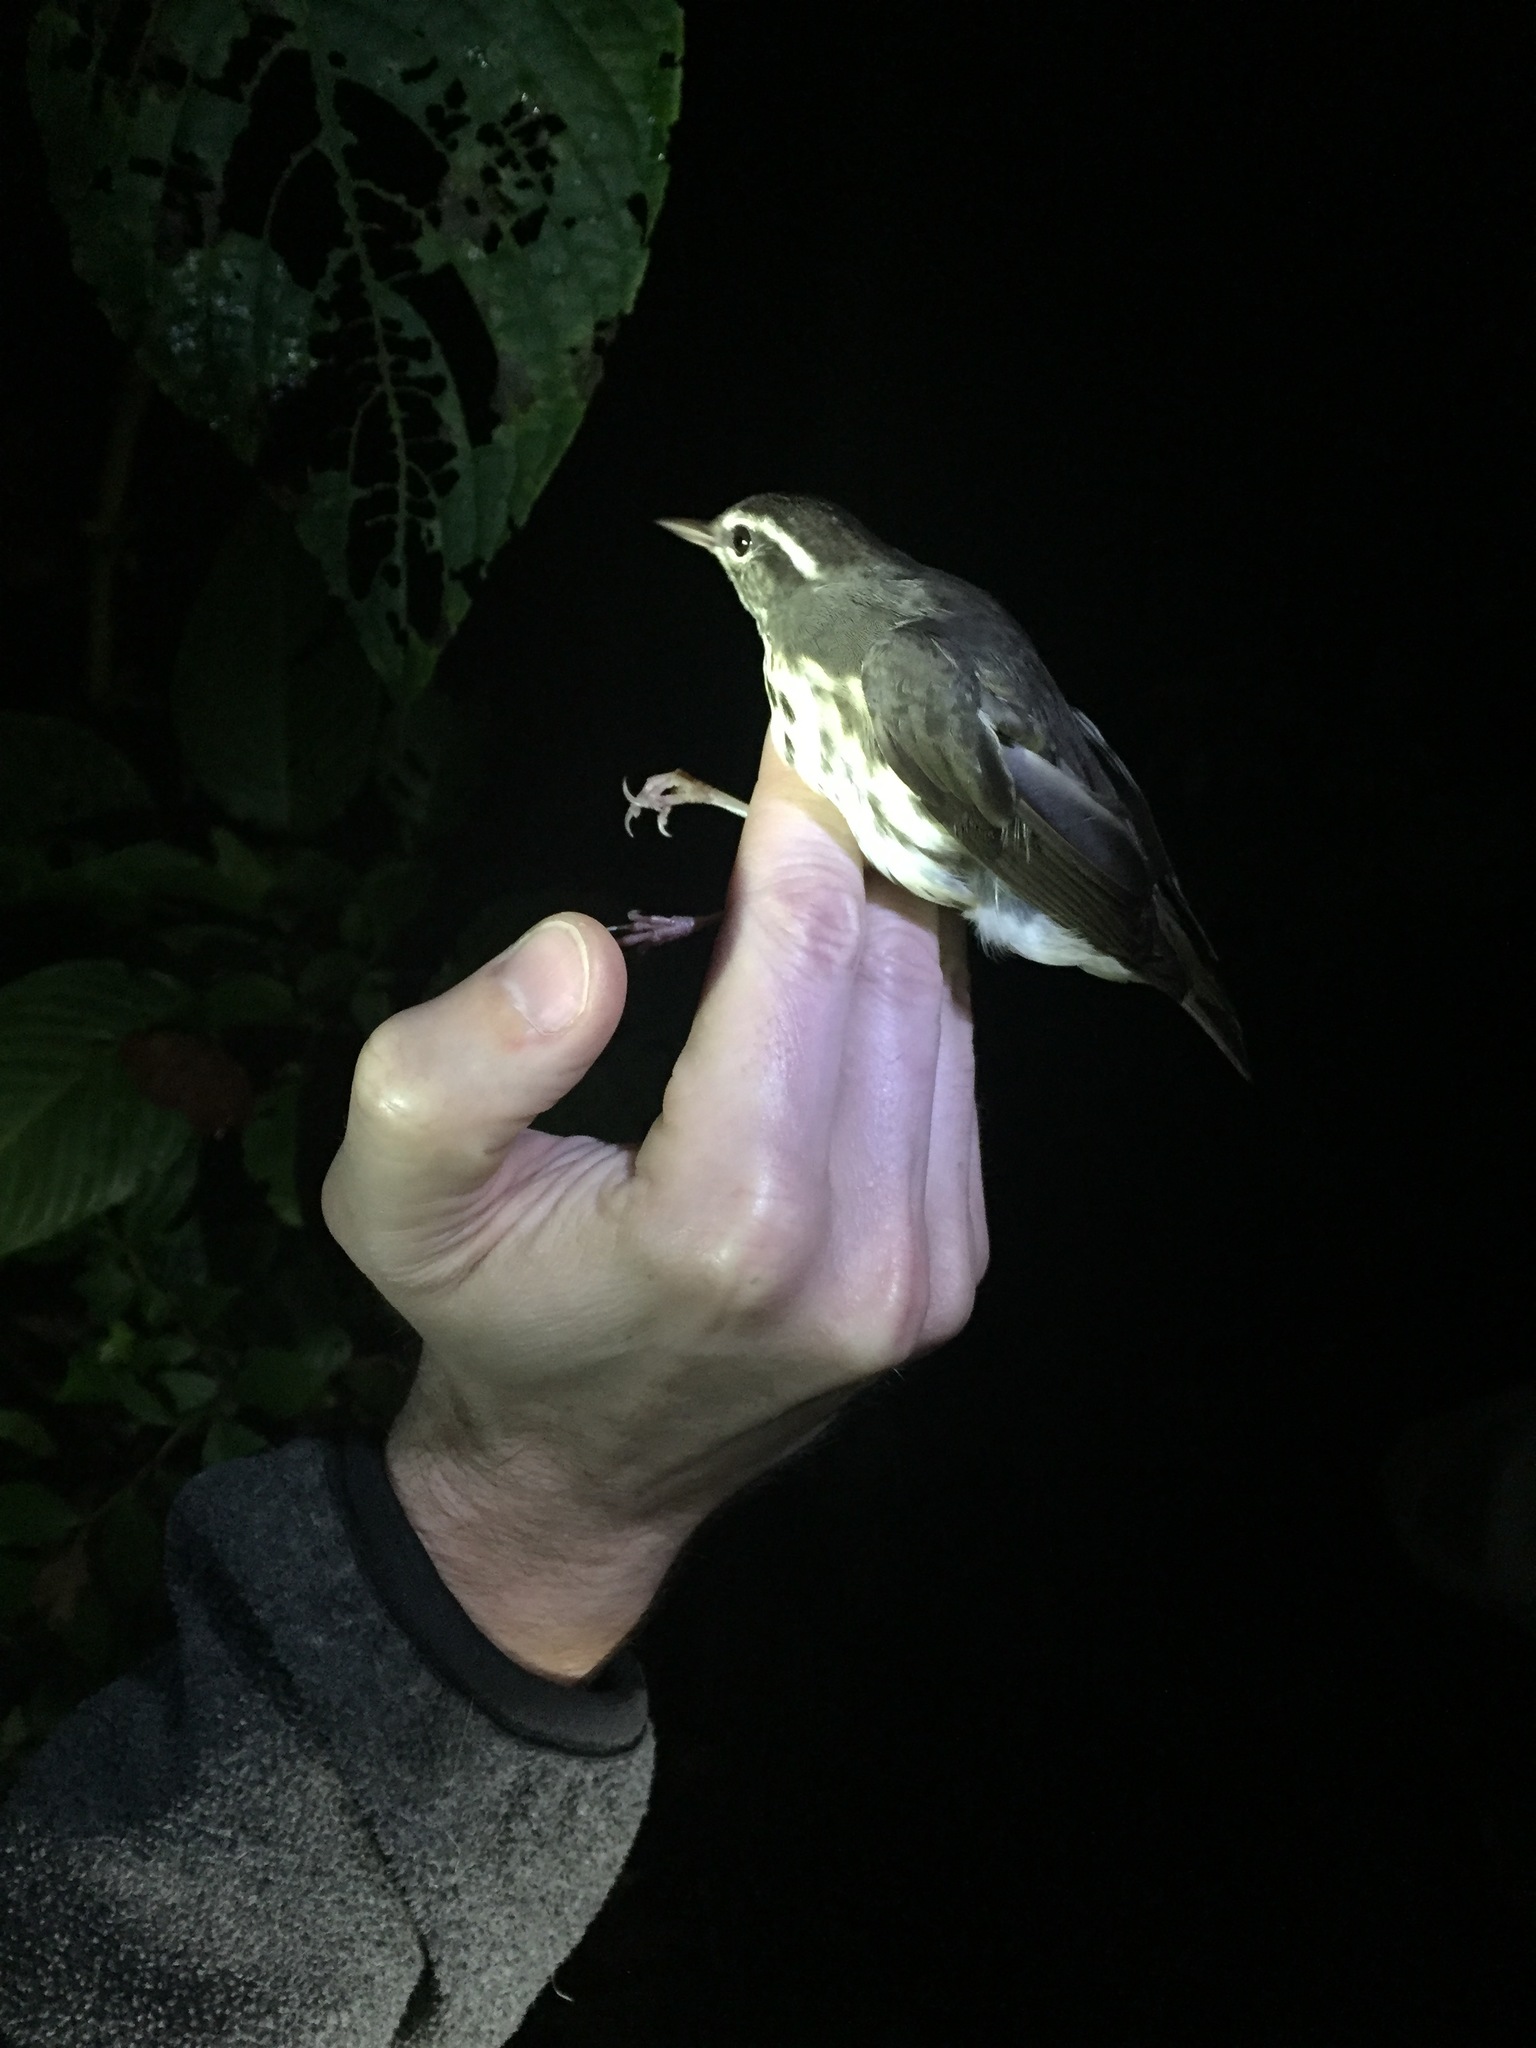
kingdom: Animalia
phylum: Chordata
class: Aves
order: Passeriformes
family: Parulidae
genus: Parkesia
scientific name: Parkesia motacilla
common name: Louisiana waterthrush
